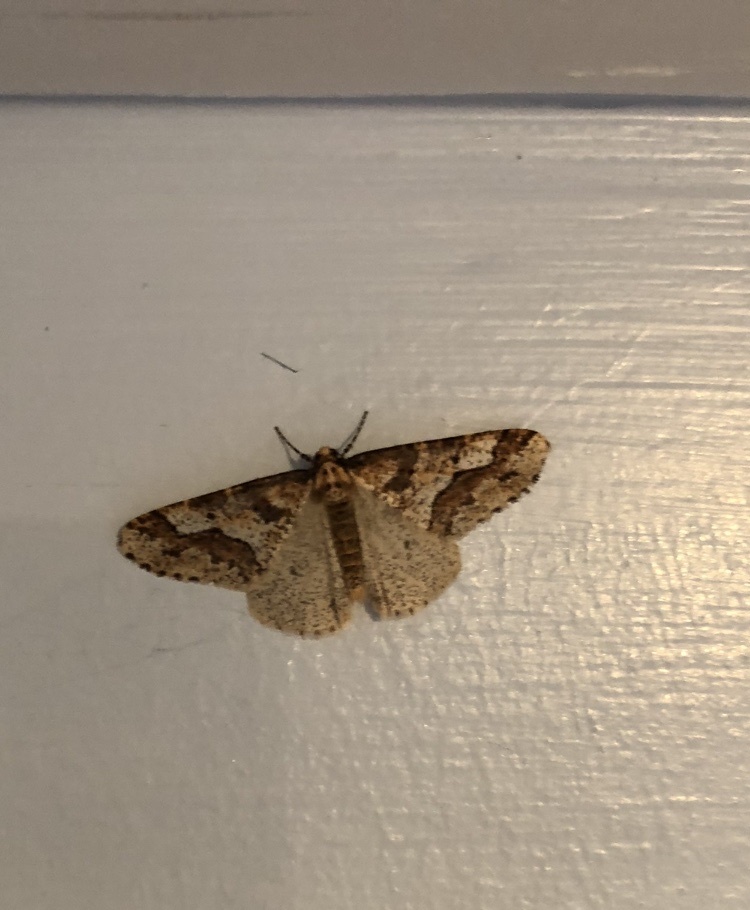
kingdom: Animalia
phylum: Arthropoda
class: Insecta
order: Lepidoptera
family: Geometridae
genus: Erannis
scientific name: Erannis defoliaria
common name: Mottled umber
